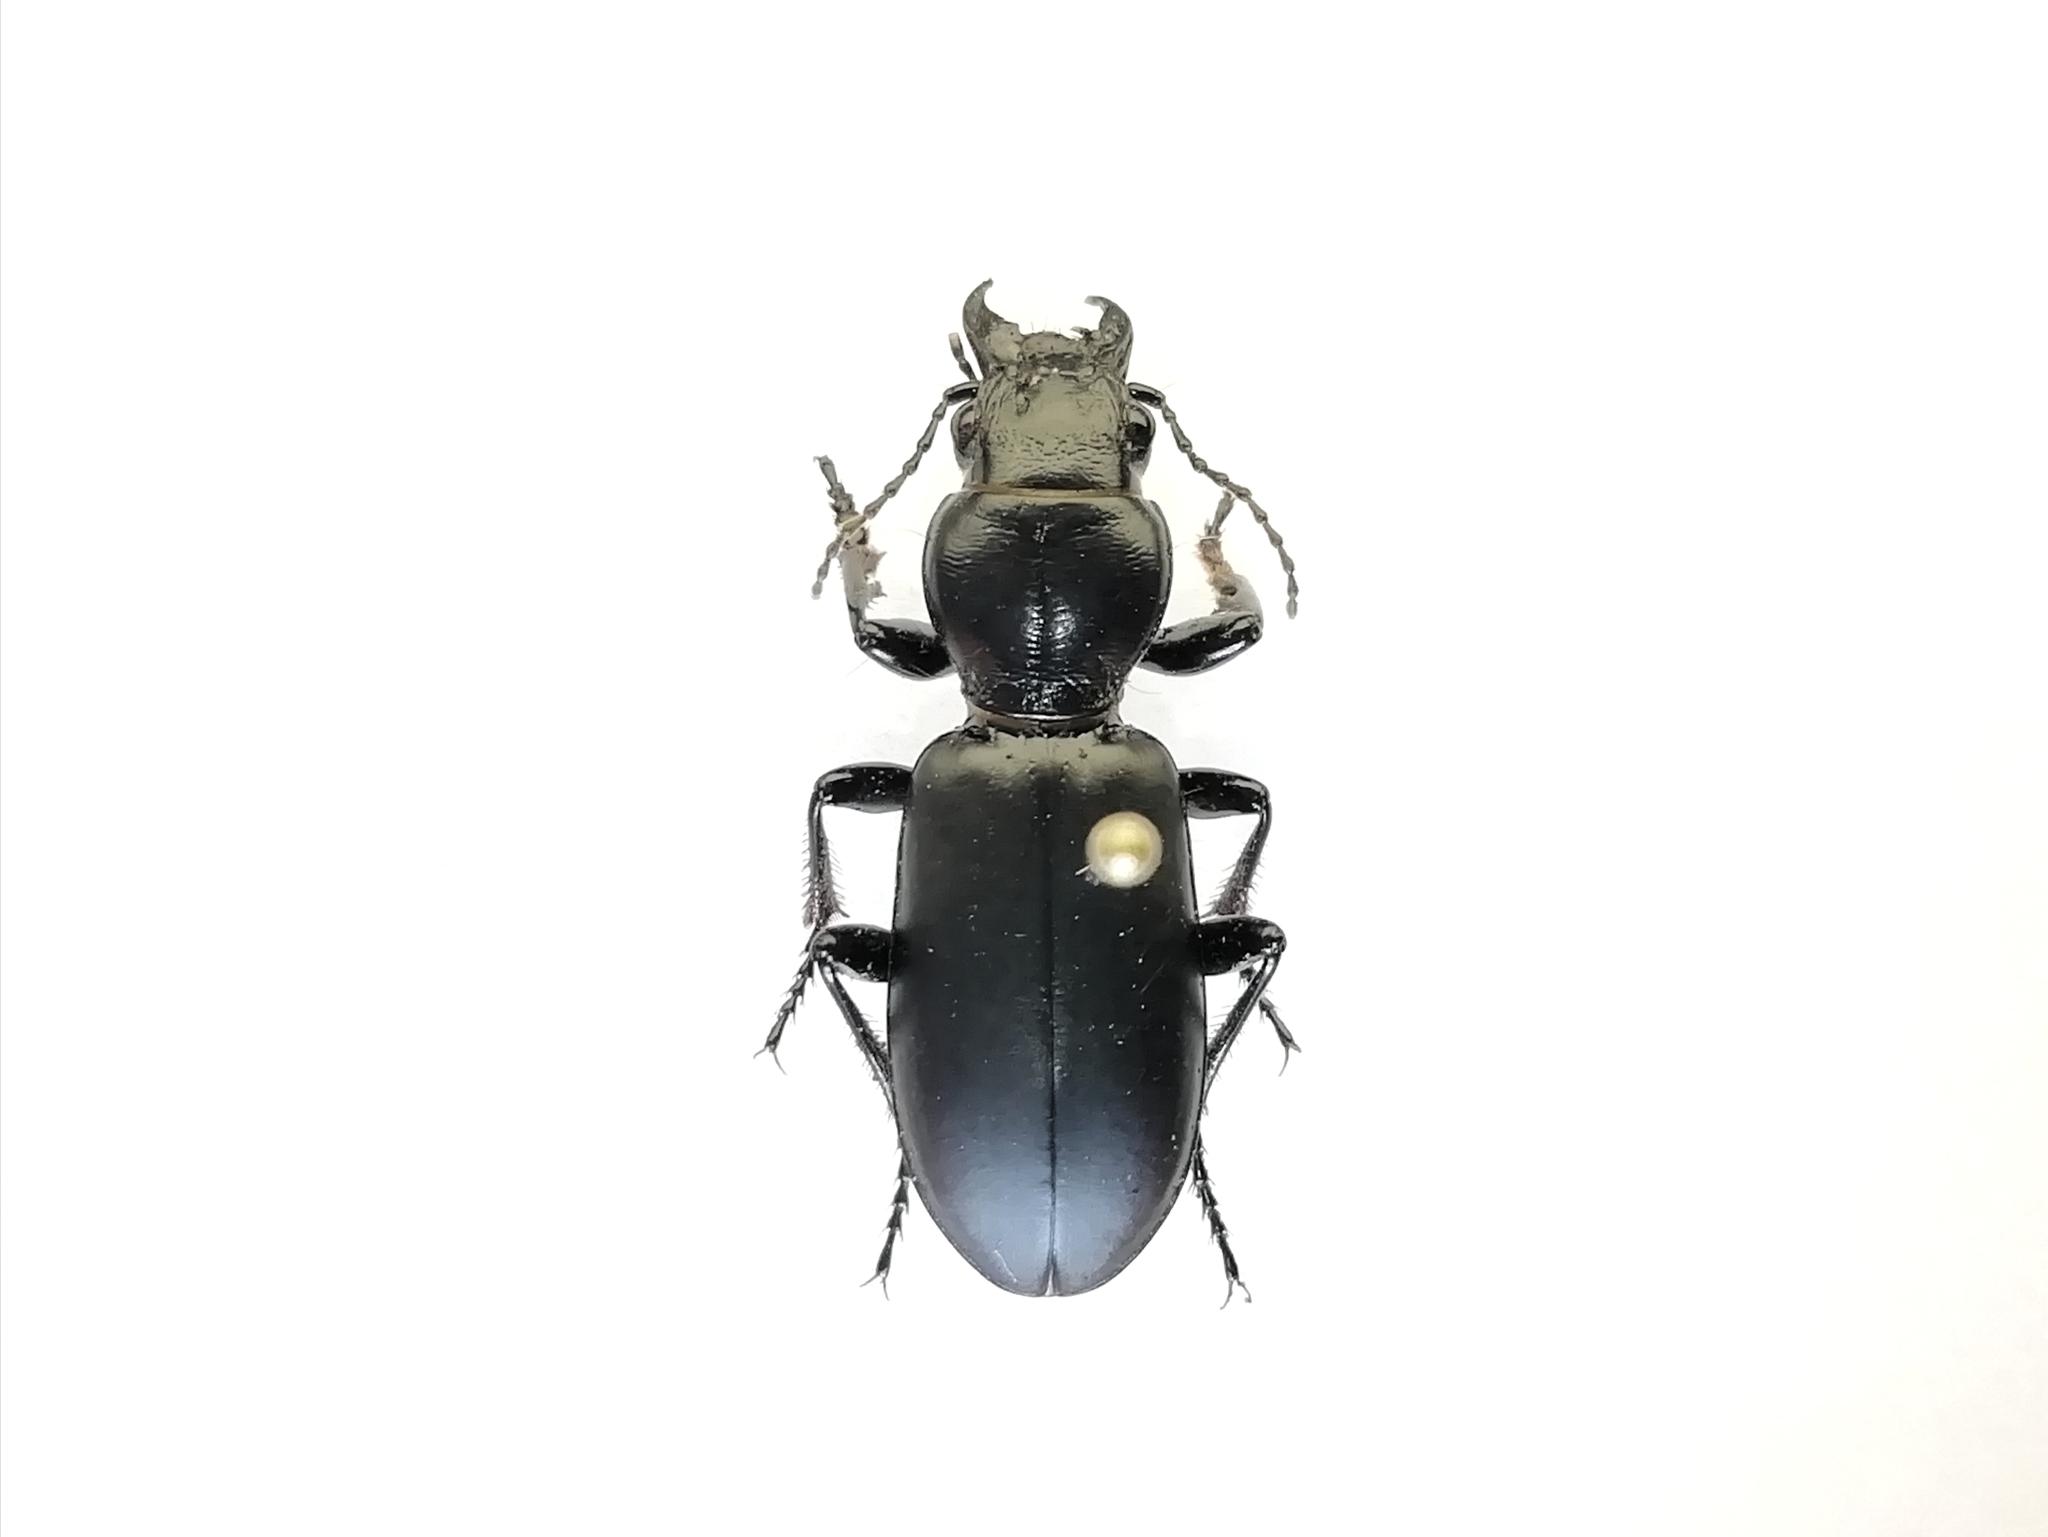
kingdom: Animalia
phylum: Arthropoda
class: Insecta
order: Coleoptera
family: Carabidae
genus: Broscus
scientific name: Broscus cephalotes
